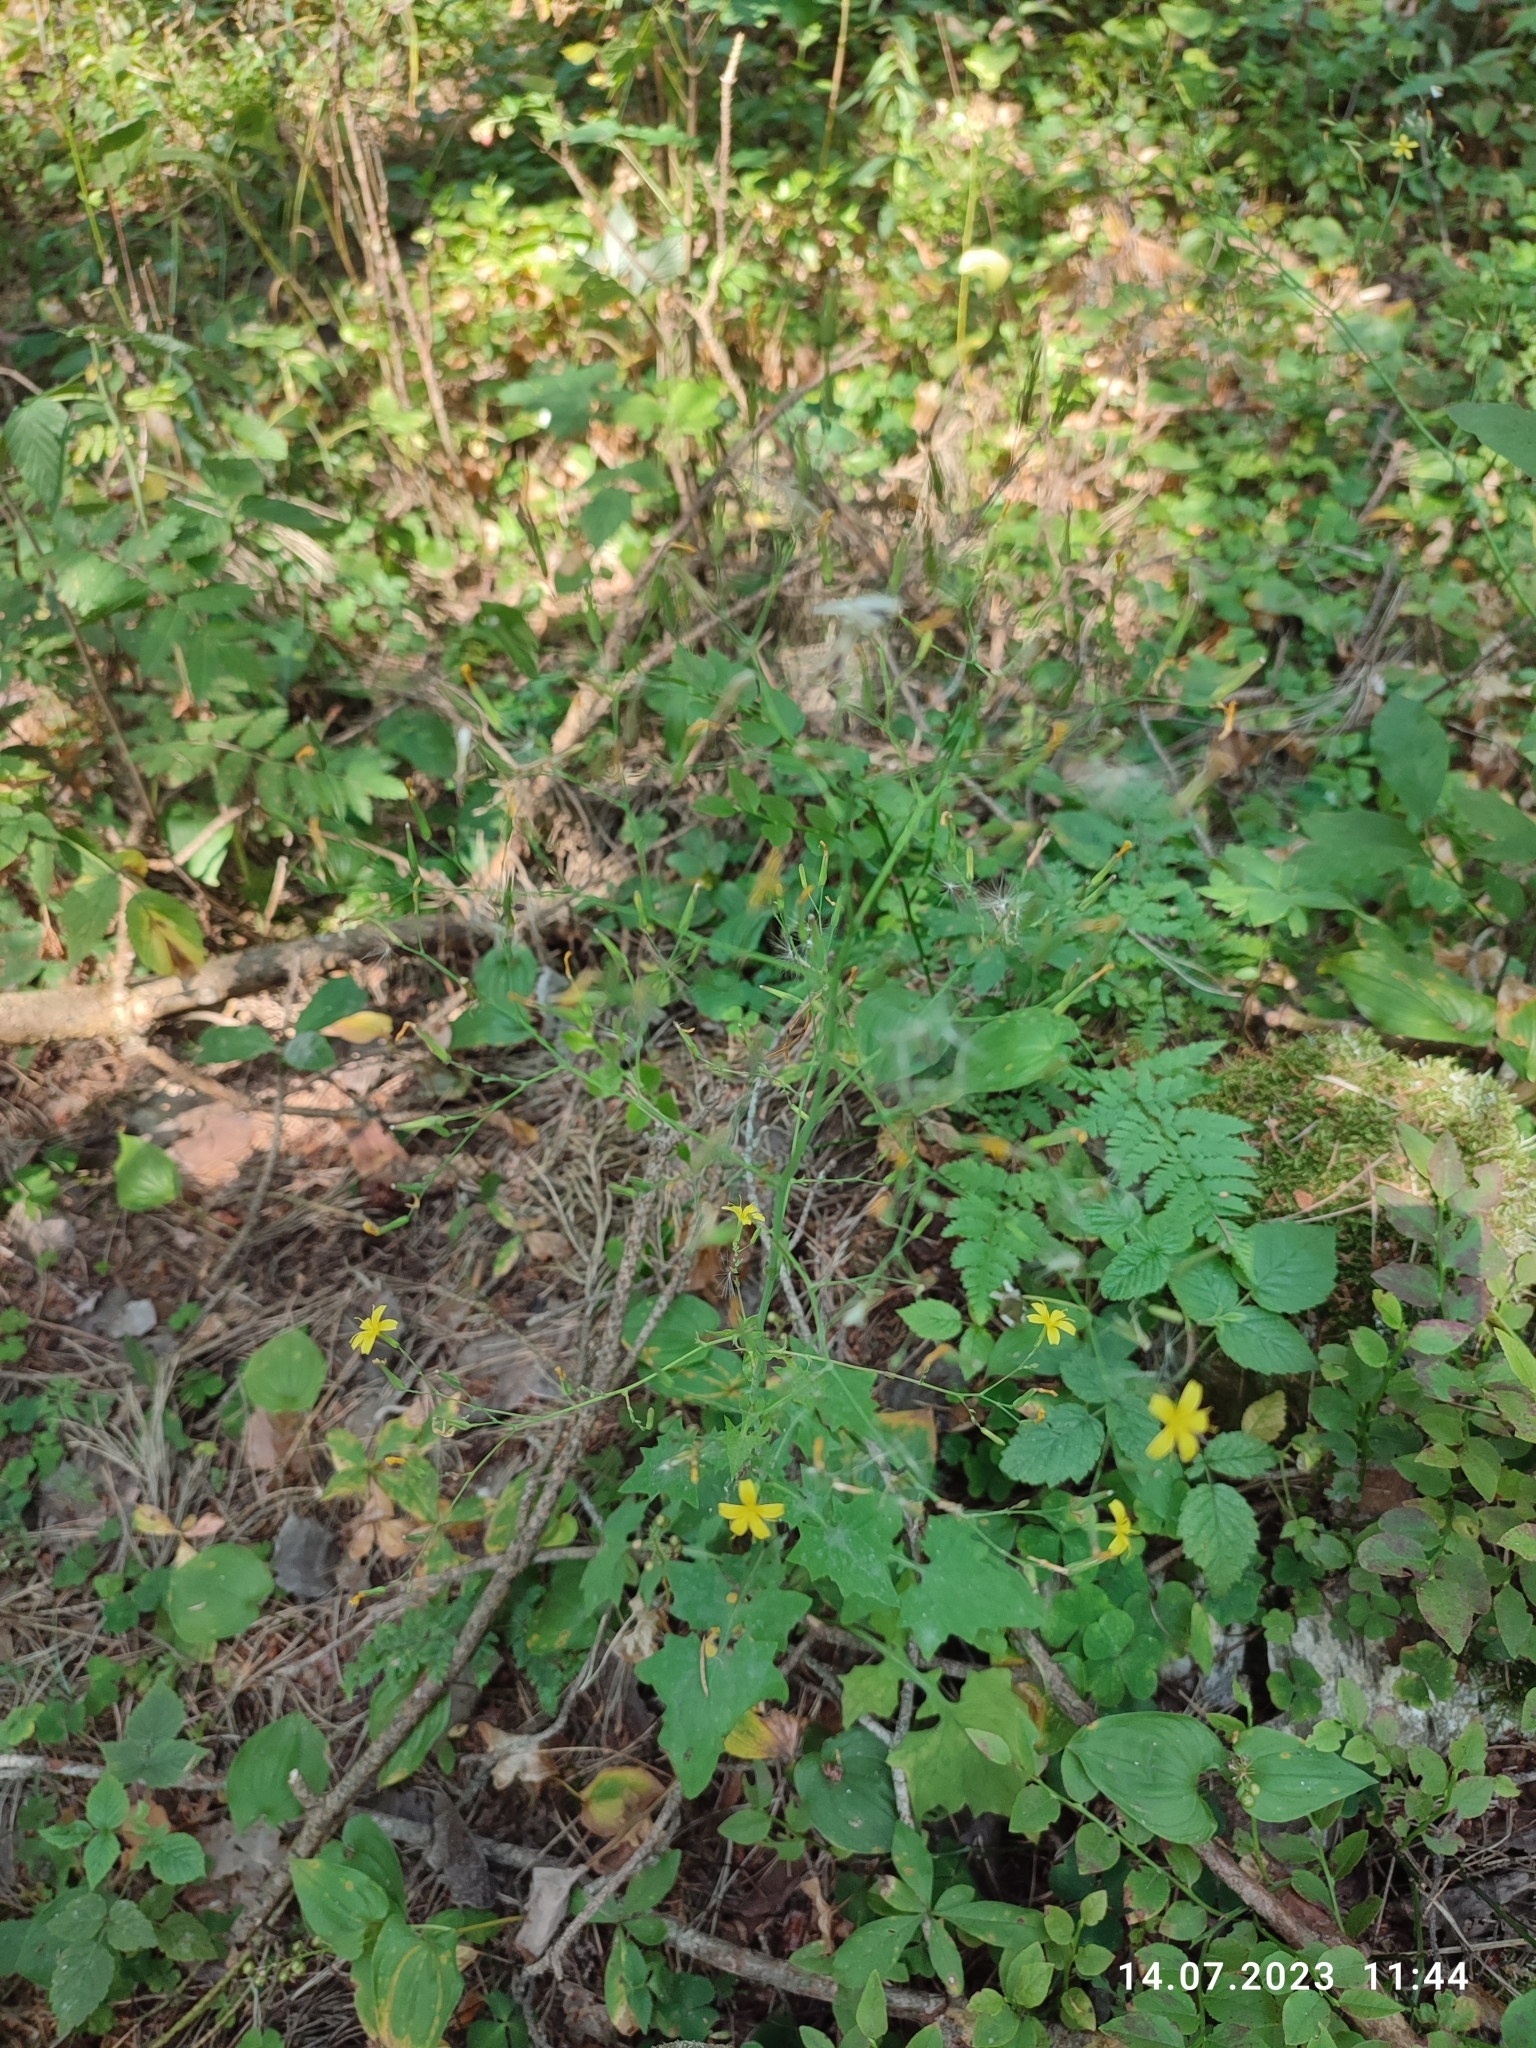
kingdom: Plantae
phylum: Tracheophyta
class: Magnoliopsida
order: Asterales
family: Asteraceae
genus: Mycelis
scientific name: Mycelis muralis
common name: Wall lettuce
